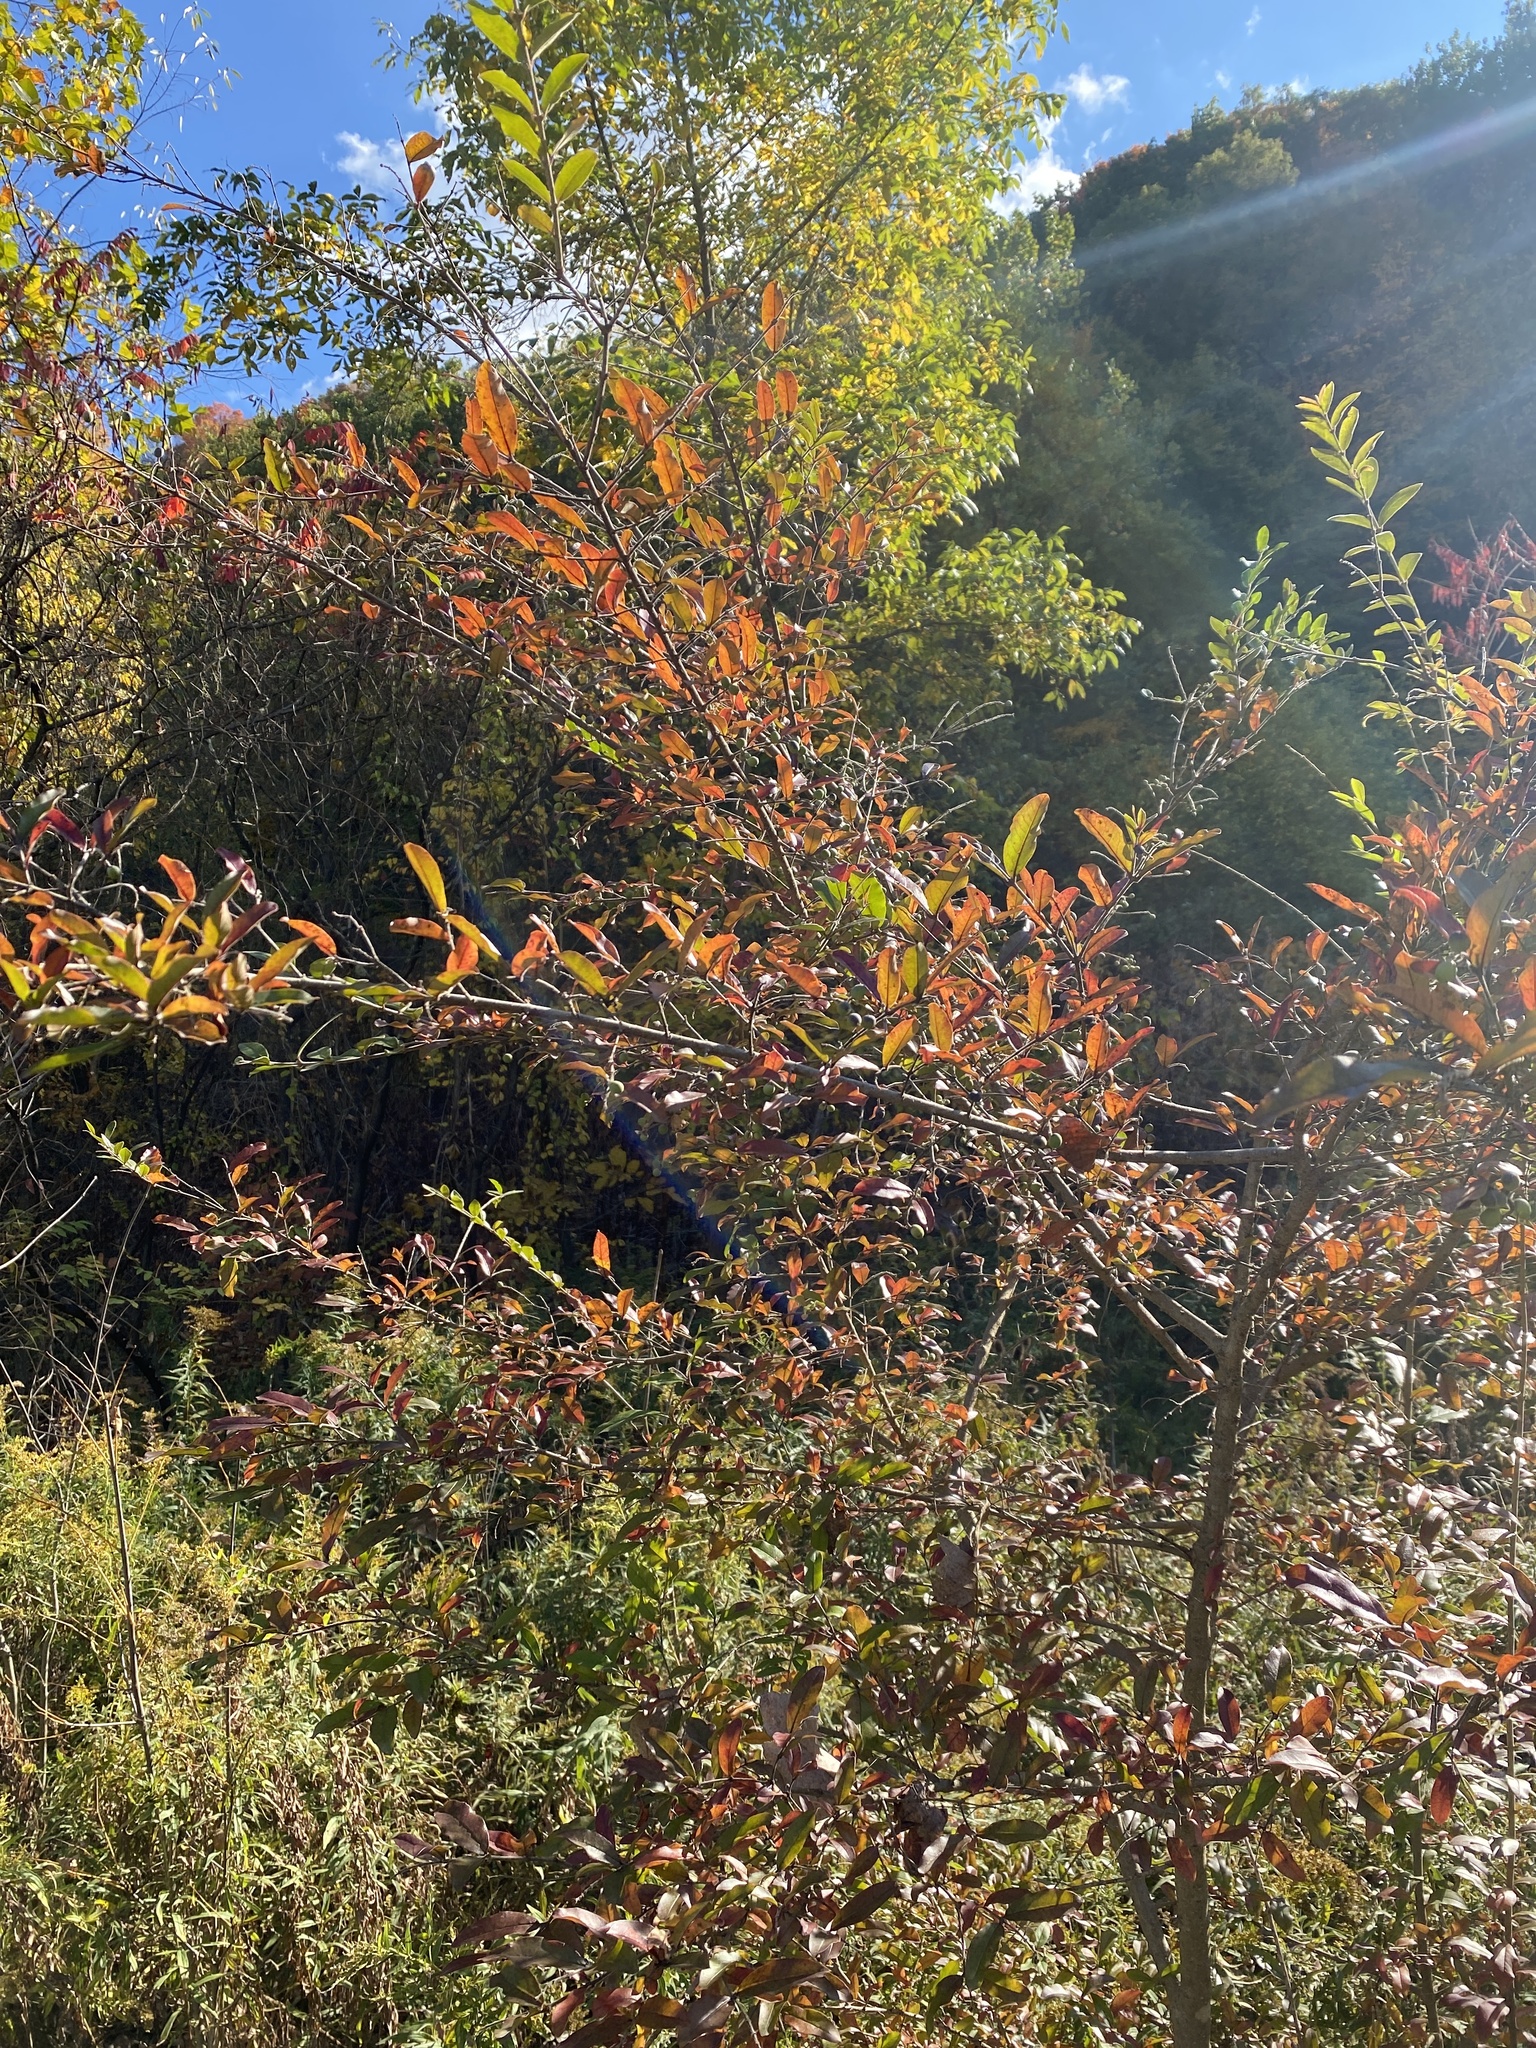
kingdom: Plantae
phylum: Tracheophyta
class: Magnoliopsida
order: Lamiales
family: Oleaceae
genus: Ligustrum
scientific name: Ligustrum
